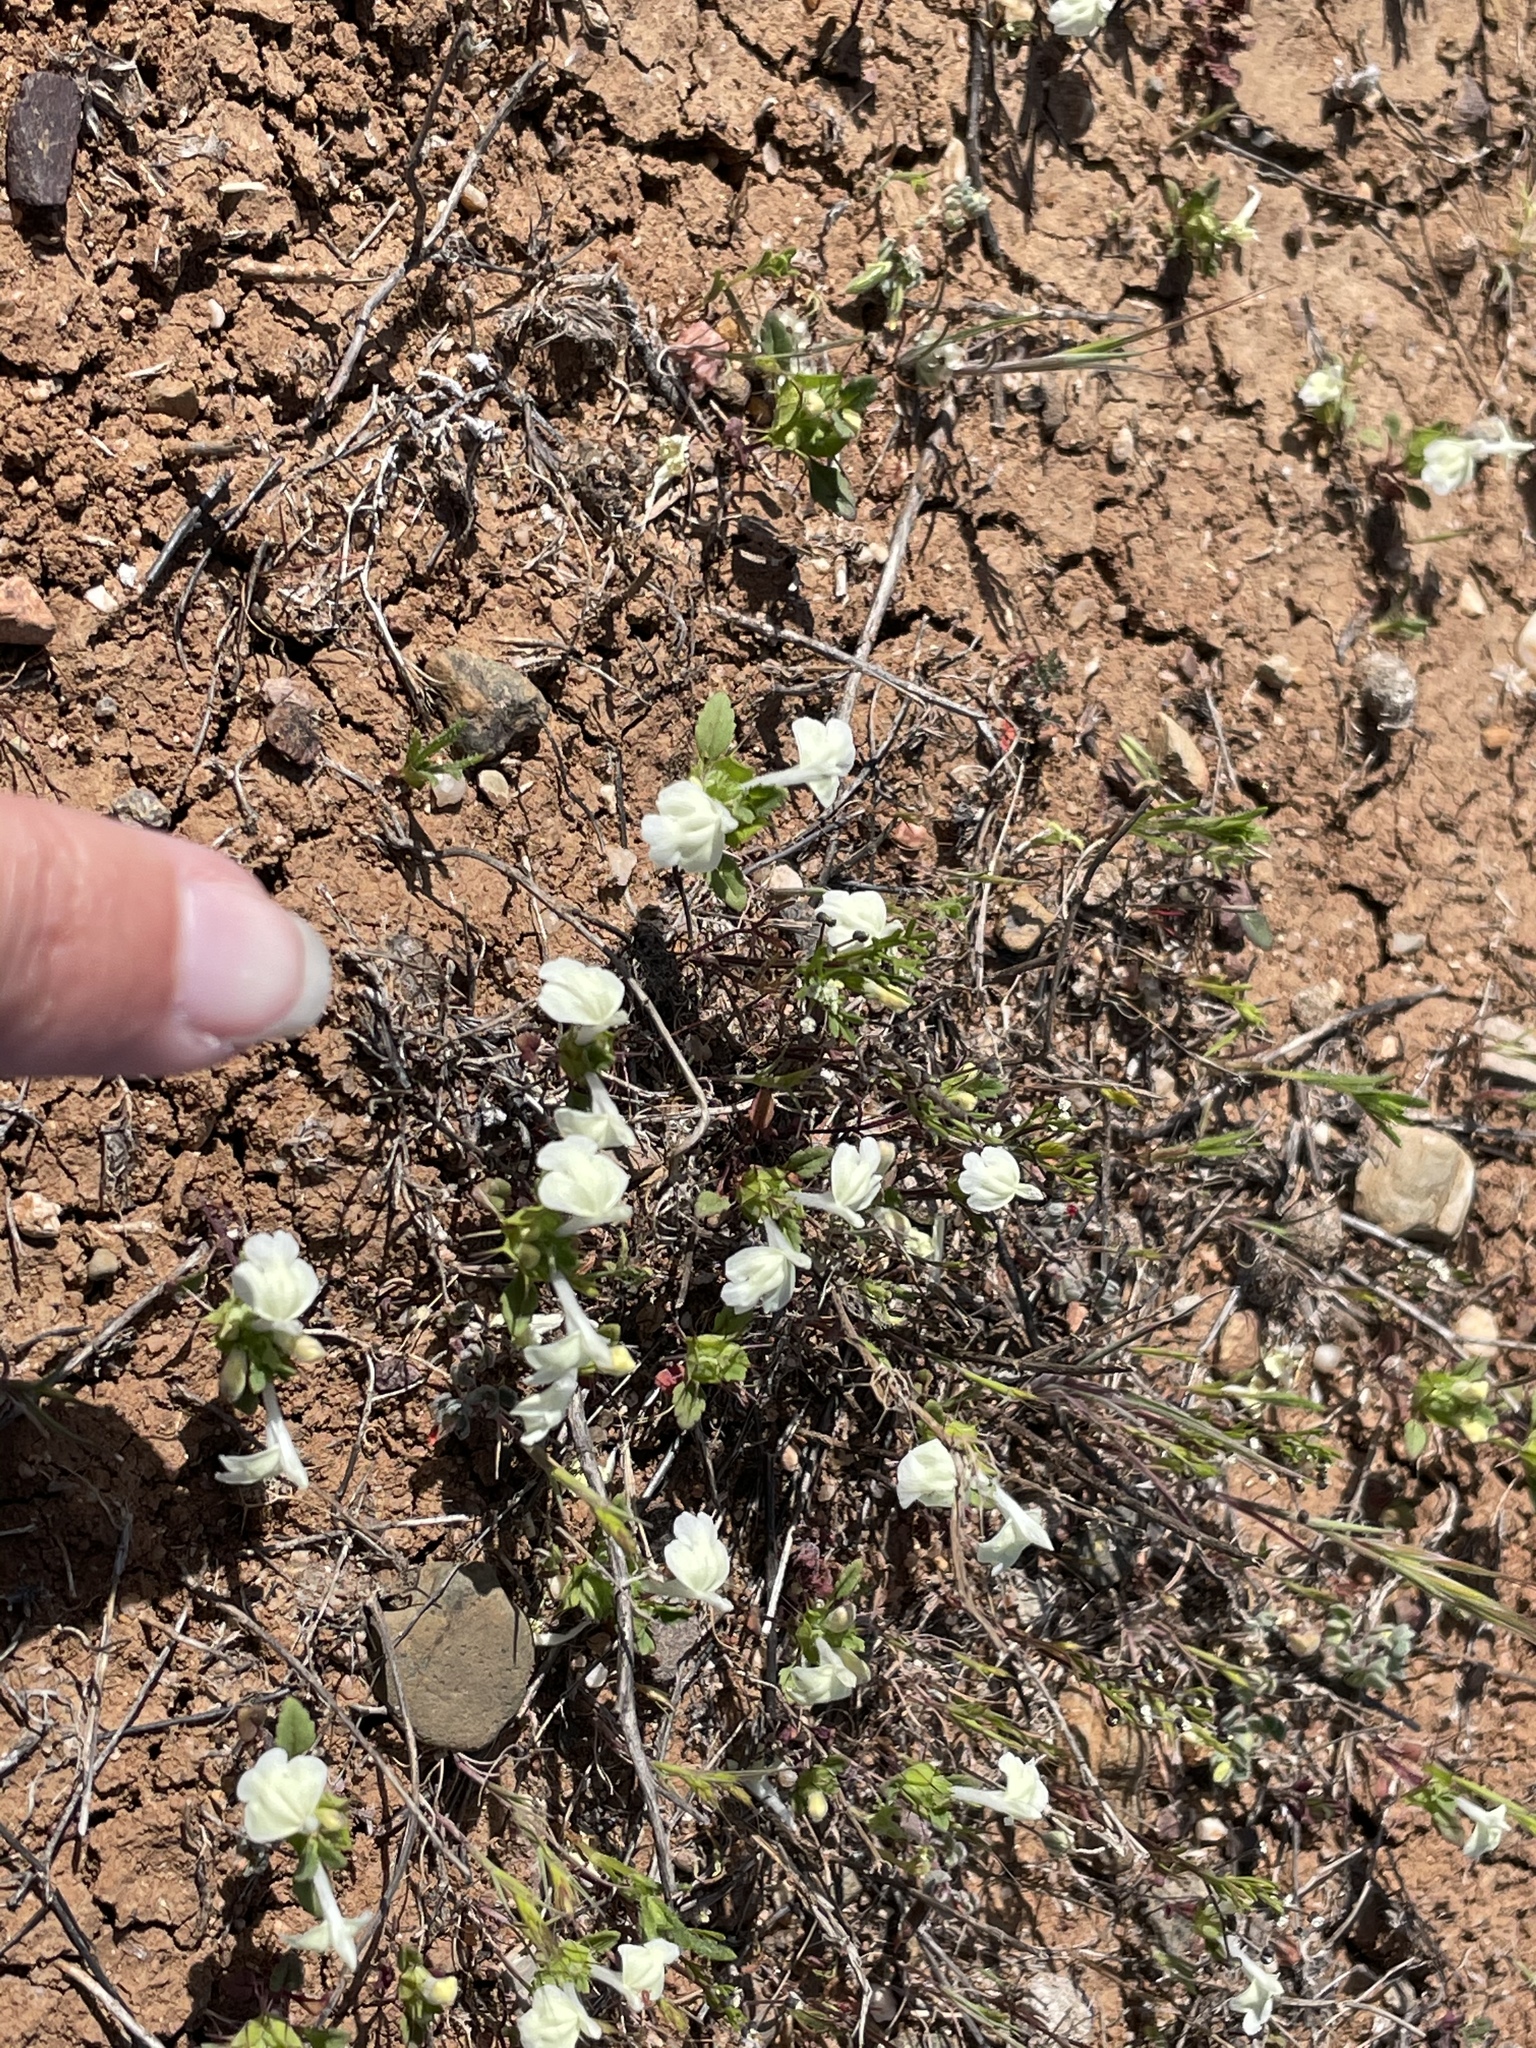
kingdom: Plantae
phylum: Tracheophyta
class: Magnoliopsida
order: Lamiales
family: Lamiaceae
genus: Acanthomintha
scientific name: Acanthomintha ilicifolia
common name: San diego thorn-mint
